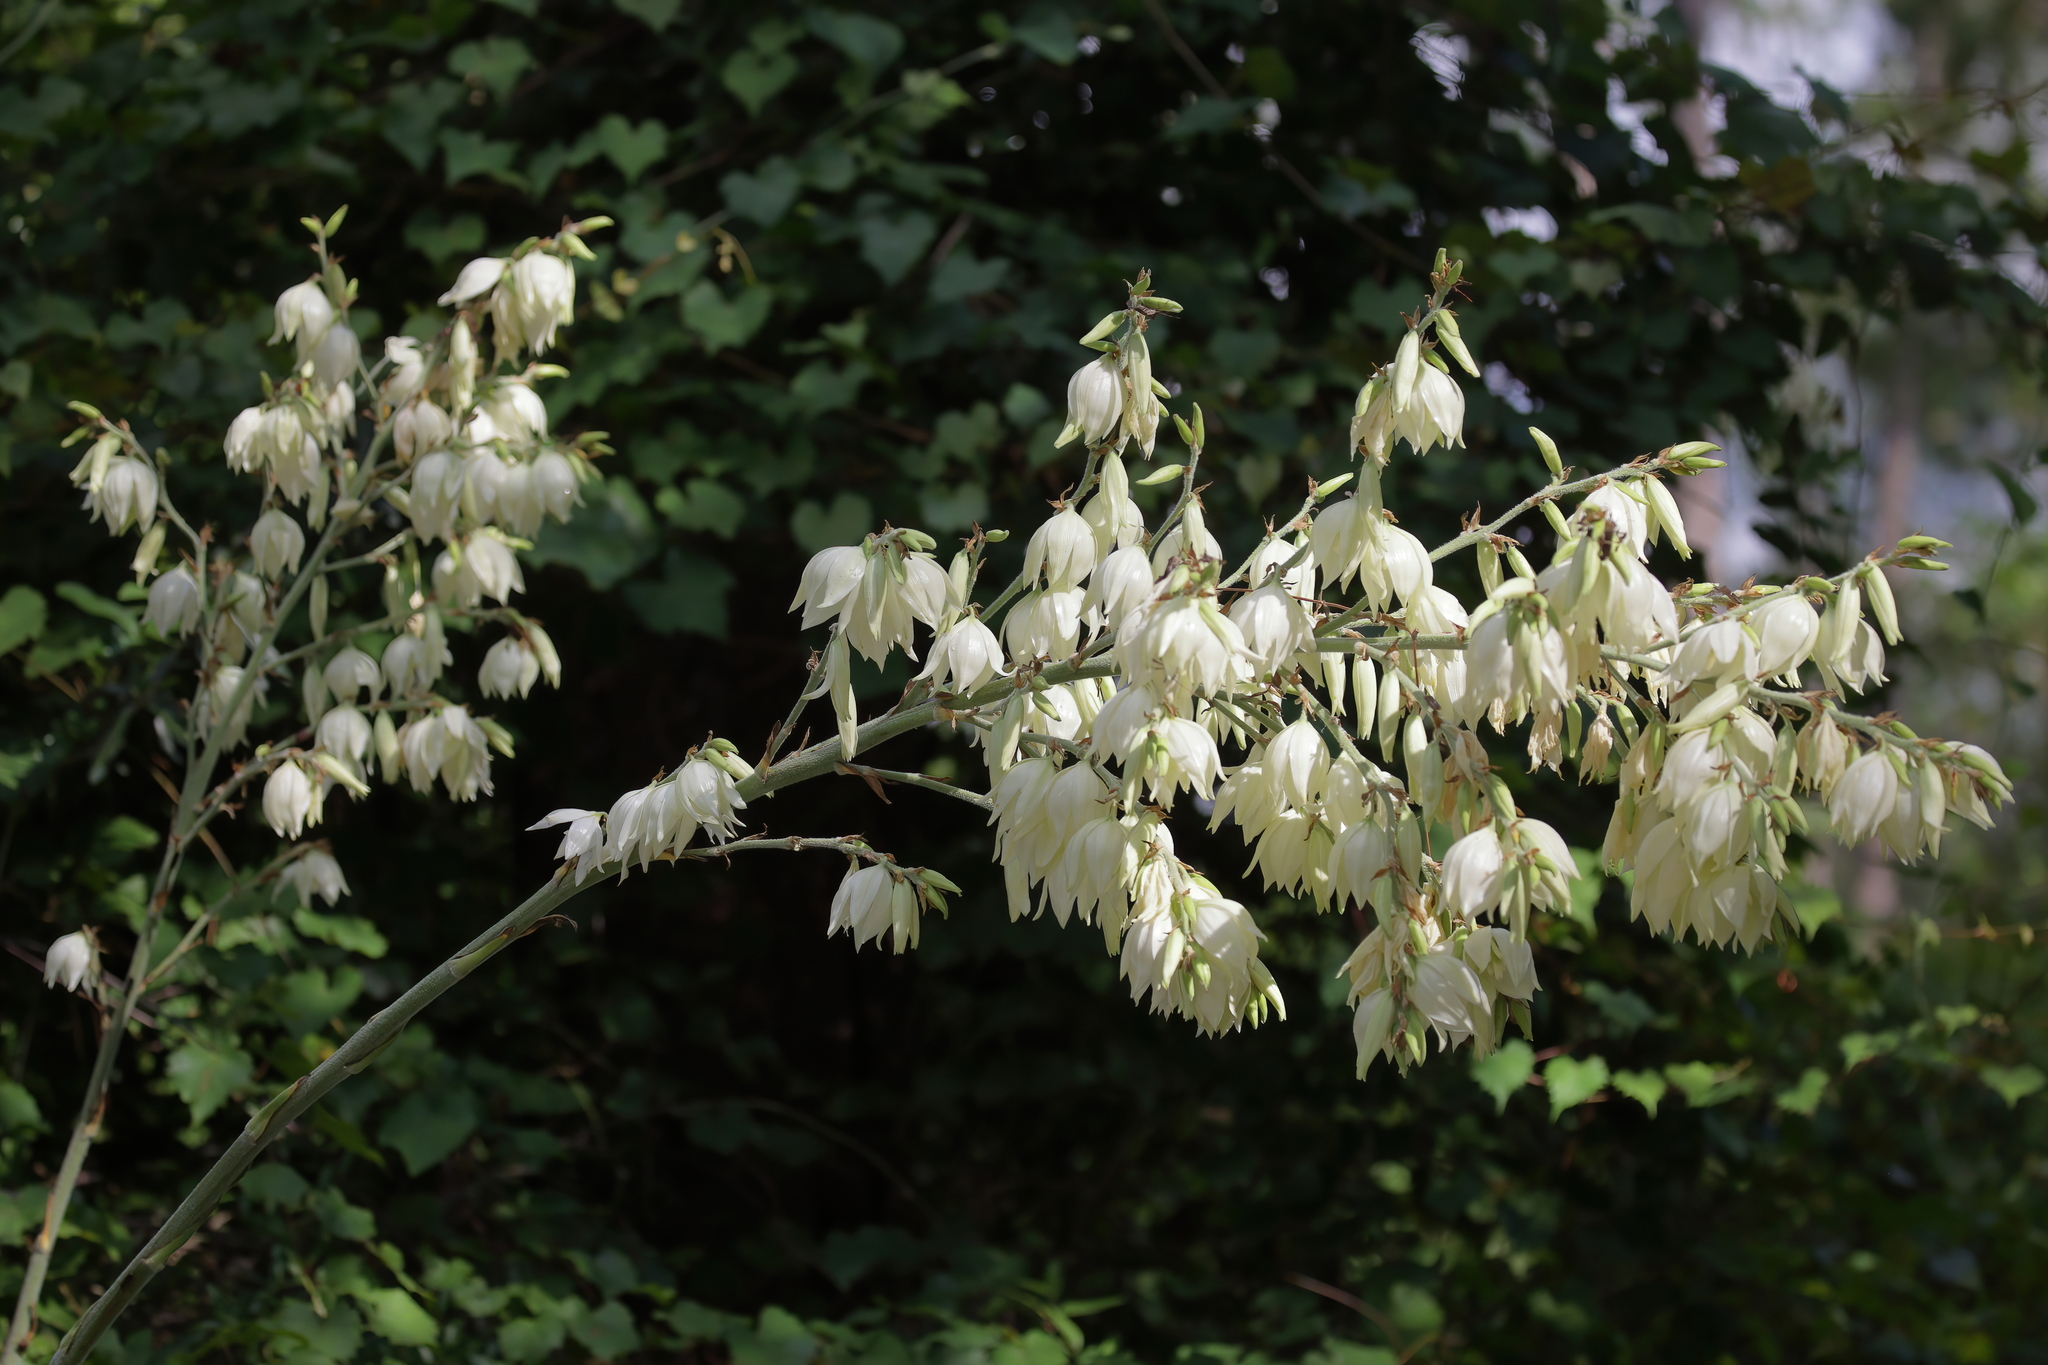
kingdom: Plantae
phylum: Tracheophyta
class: Liliopsida
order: Asparagales
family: Asparagaceae
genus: Yucca
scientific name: Yucca filamentosa
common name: Adam's-needle
